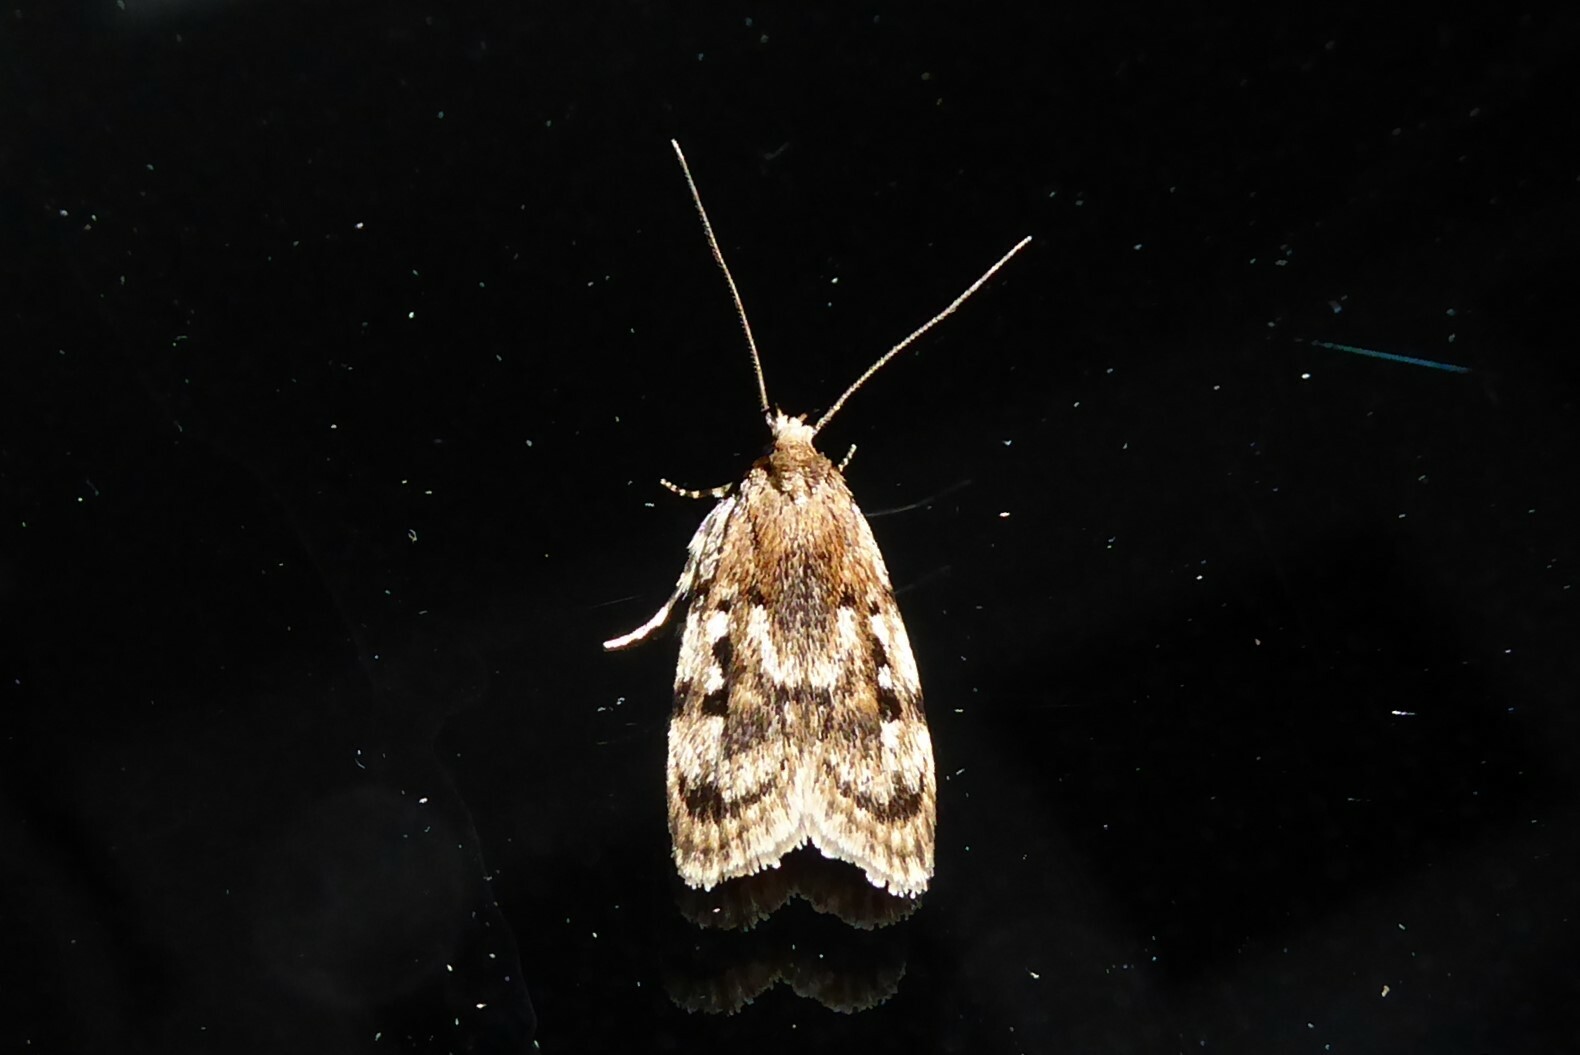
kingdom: Animalia
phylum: Arthropoda
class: Insecta
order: Lepidoptera
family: Oecophoridae
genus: Barea
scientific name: Barea exarcha
